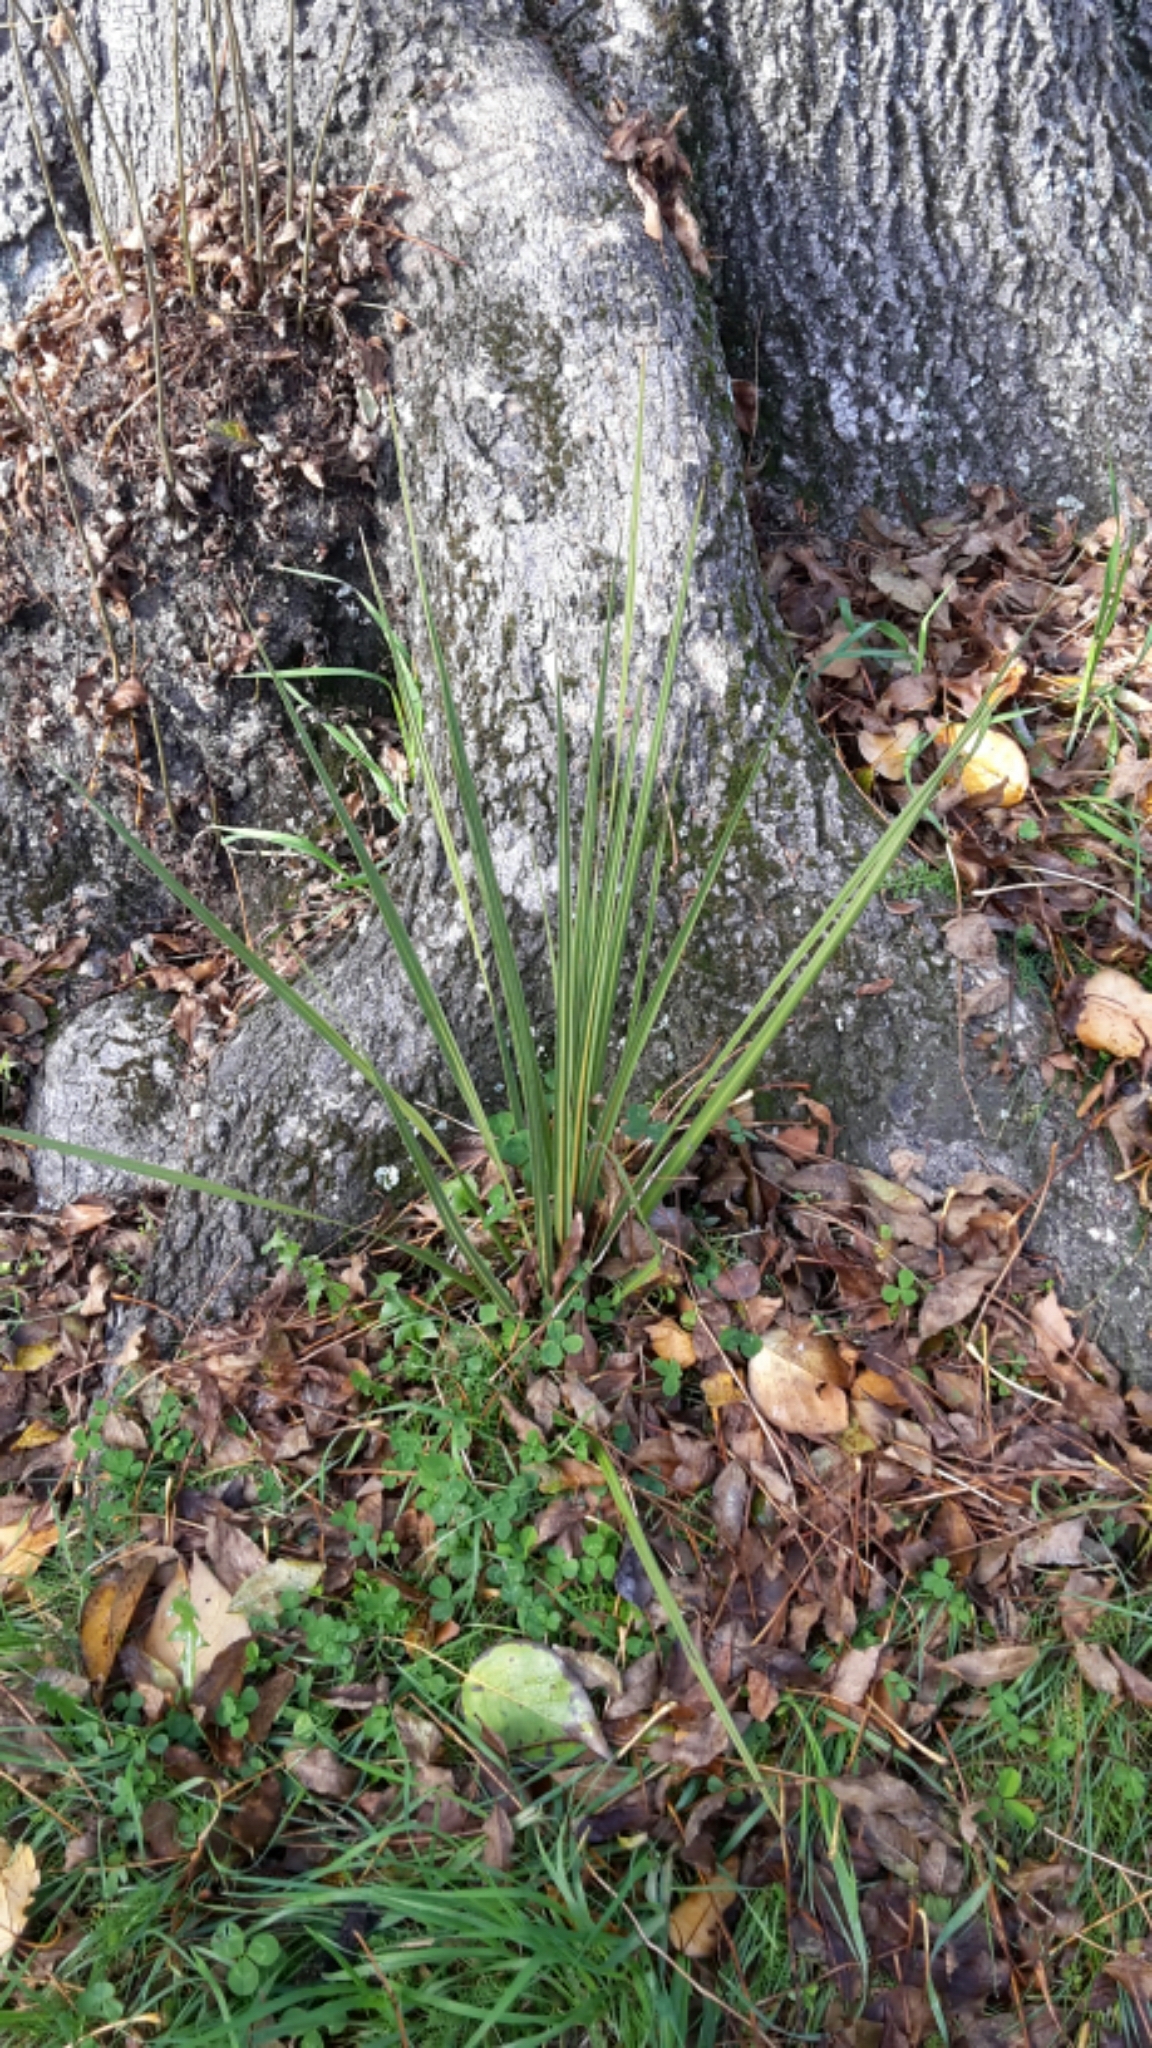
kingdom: Plantae
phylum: Tracheophyta
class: Liliopsida
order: Asparagales
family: Asparagaceae
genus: Cordyline
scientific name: Cordyline australis
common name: Cabbage-palm
